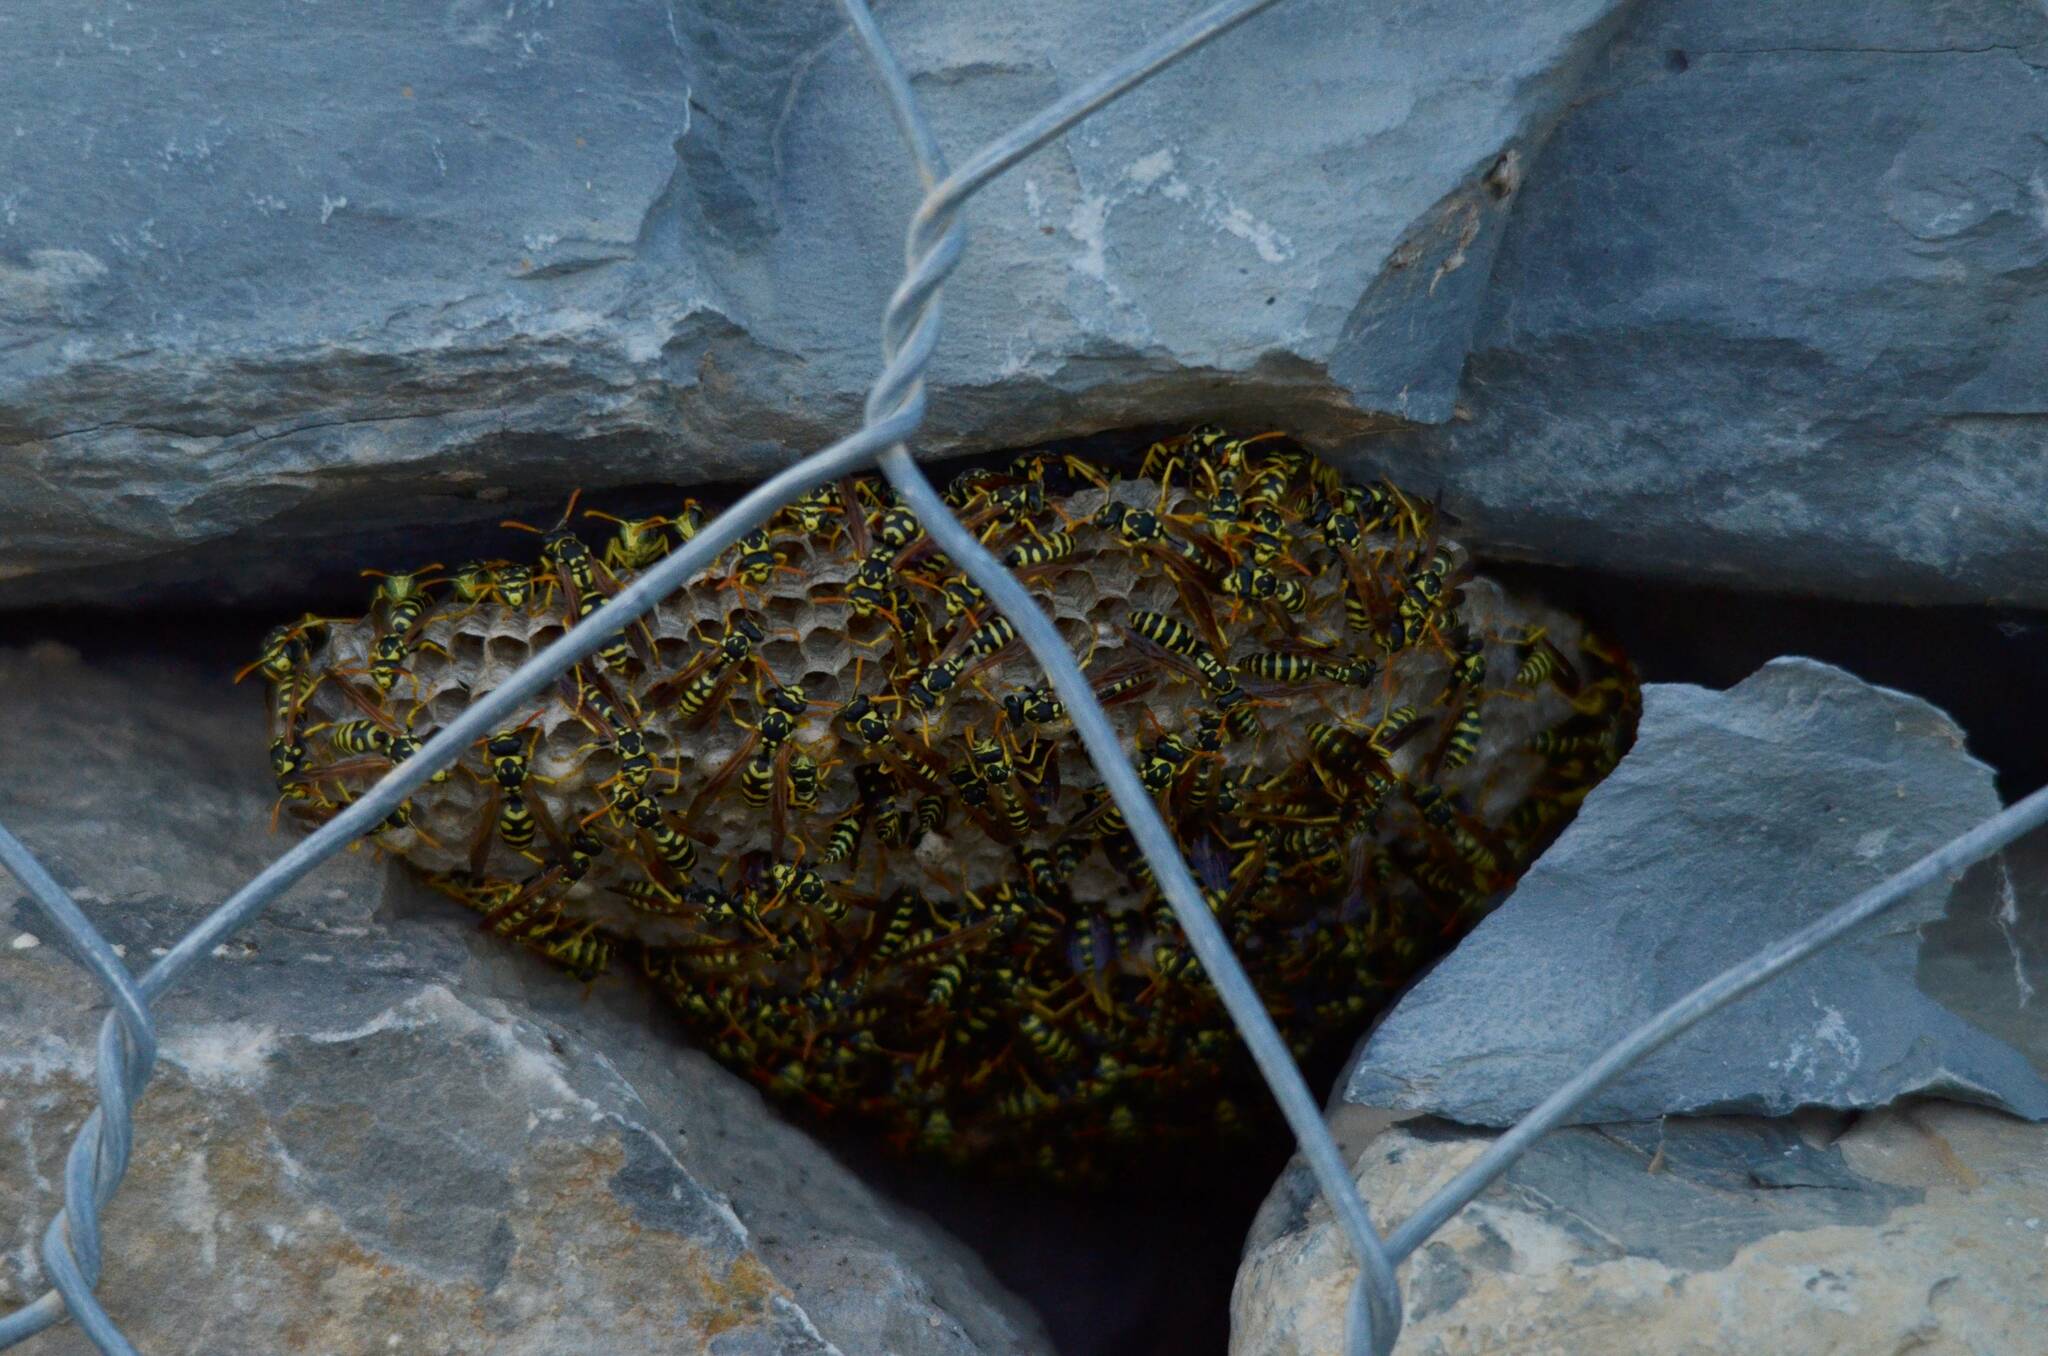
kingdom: Animalia
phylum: Arthropoda
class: Insecta
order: Hymenoptera
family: Eumenidae
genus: Polistes
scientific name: Polistes gallicus
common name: Paper wasp
